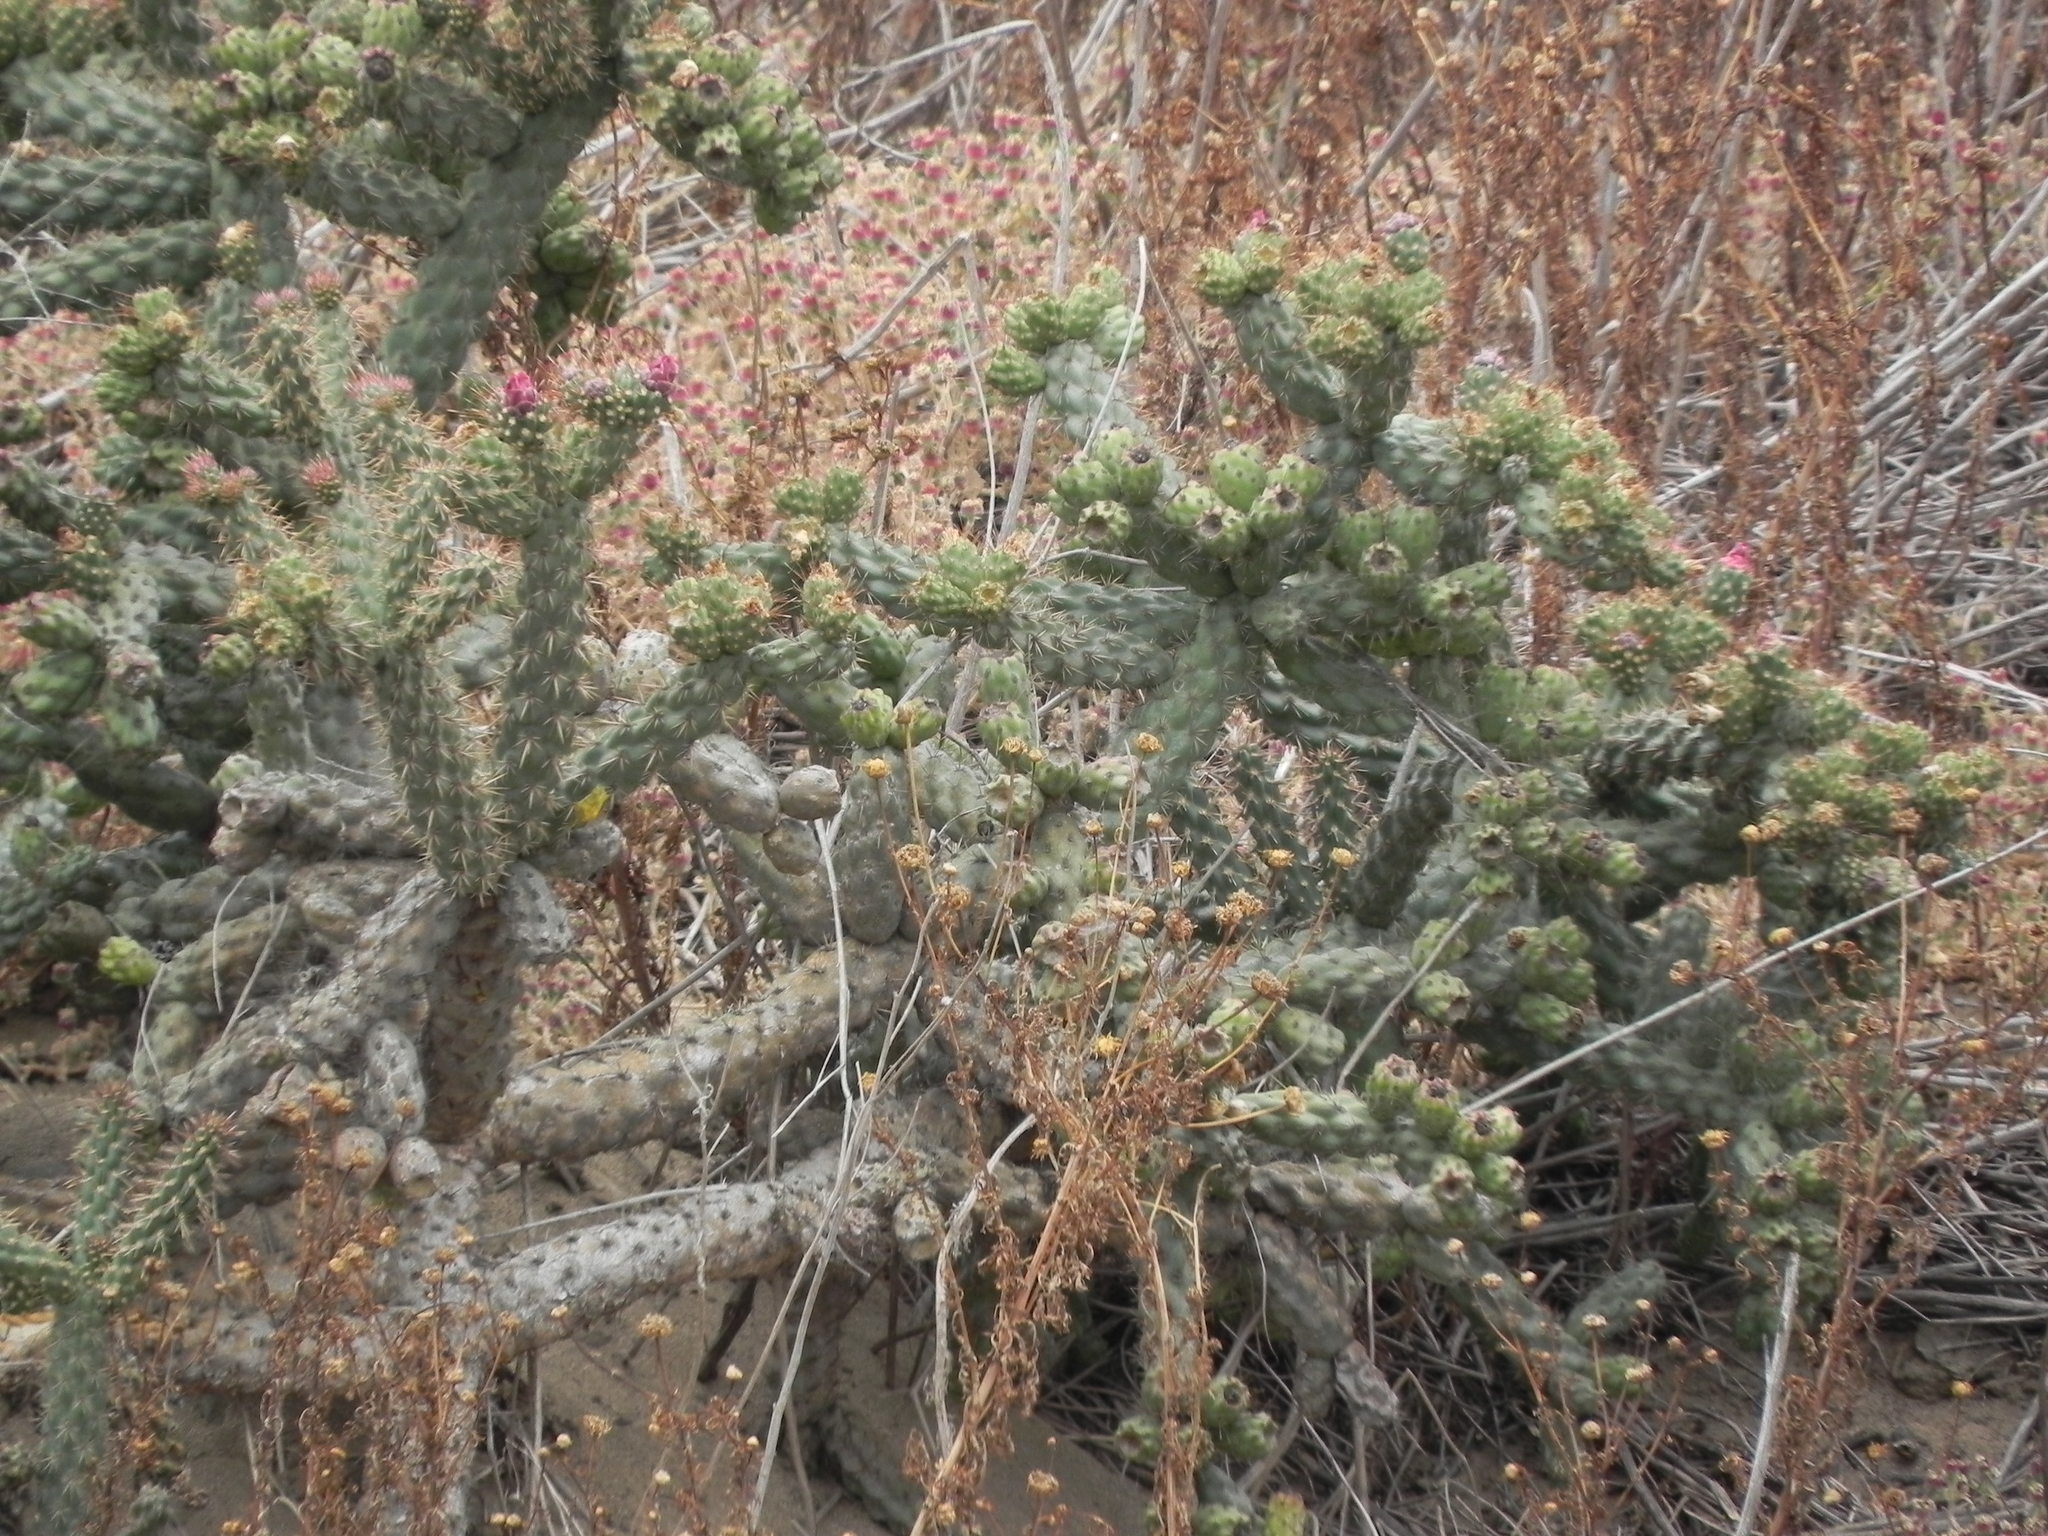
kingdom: Plantae
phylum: Tracheophyta
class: Magnoliopsida
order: Caryophyllales
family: Cactaceae
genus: Cylindropuntia
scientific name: Cylindropuntia prolifera
